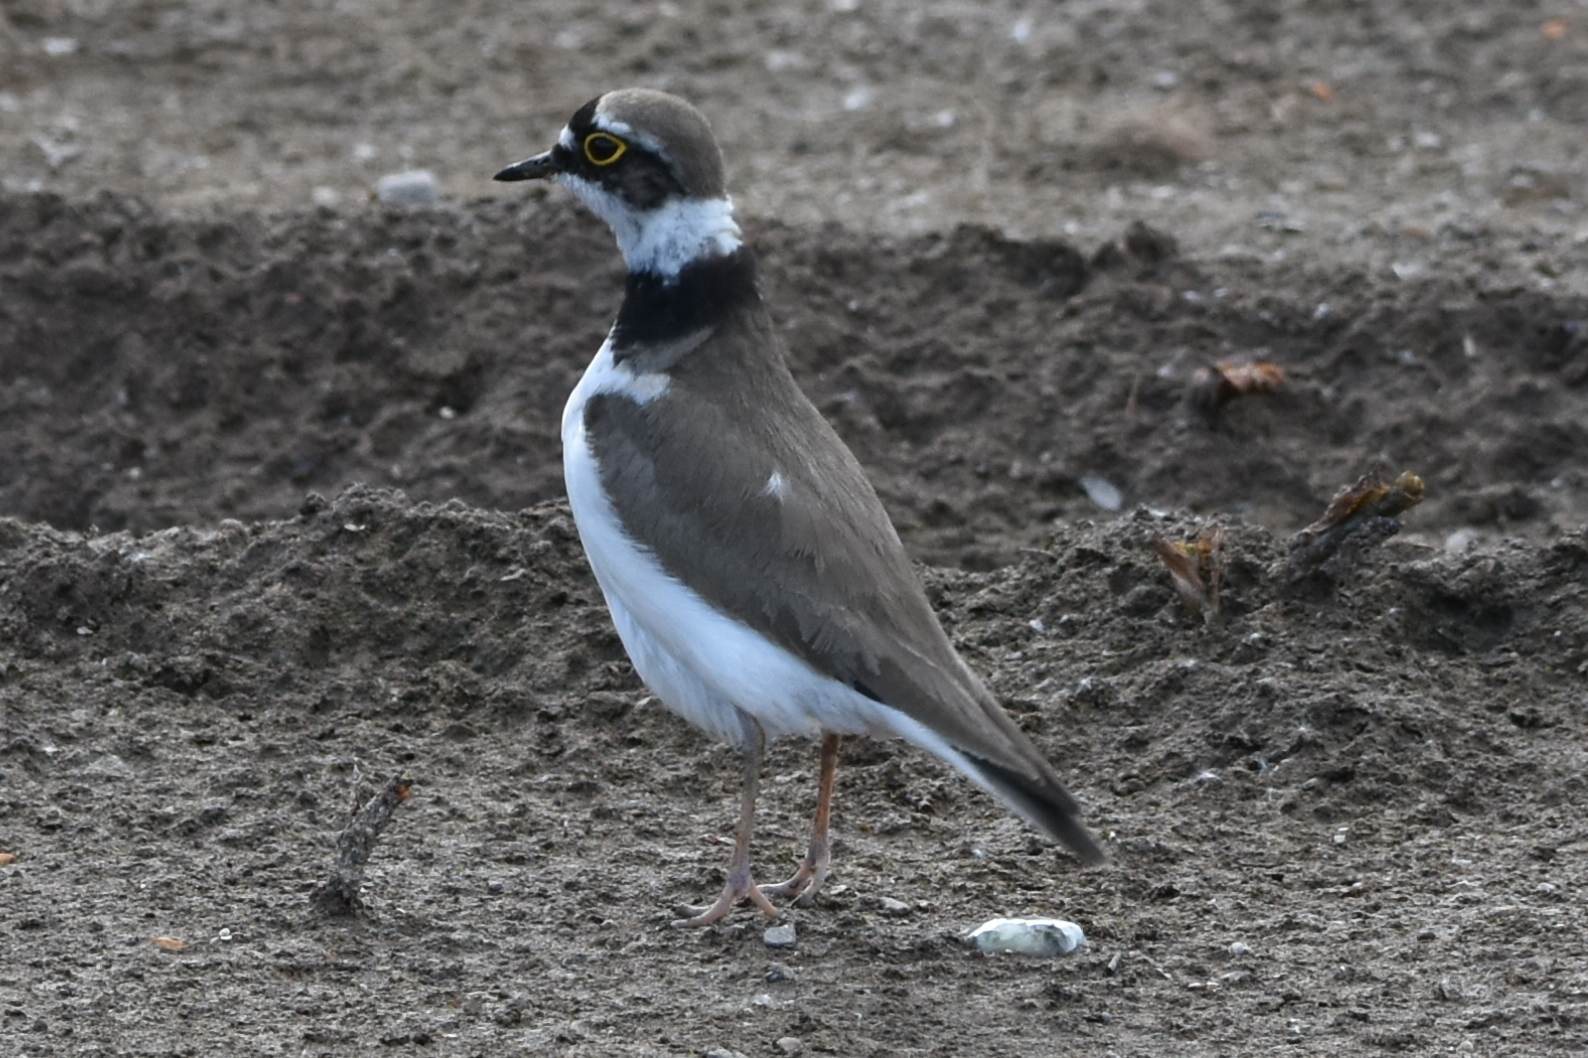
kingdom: Animalia
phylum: Chordata
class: Aves
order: Charadriiformes
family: Charadriidae
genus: Charadrius
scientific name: Charadrius dubius
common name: Little ringed plover
